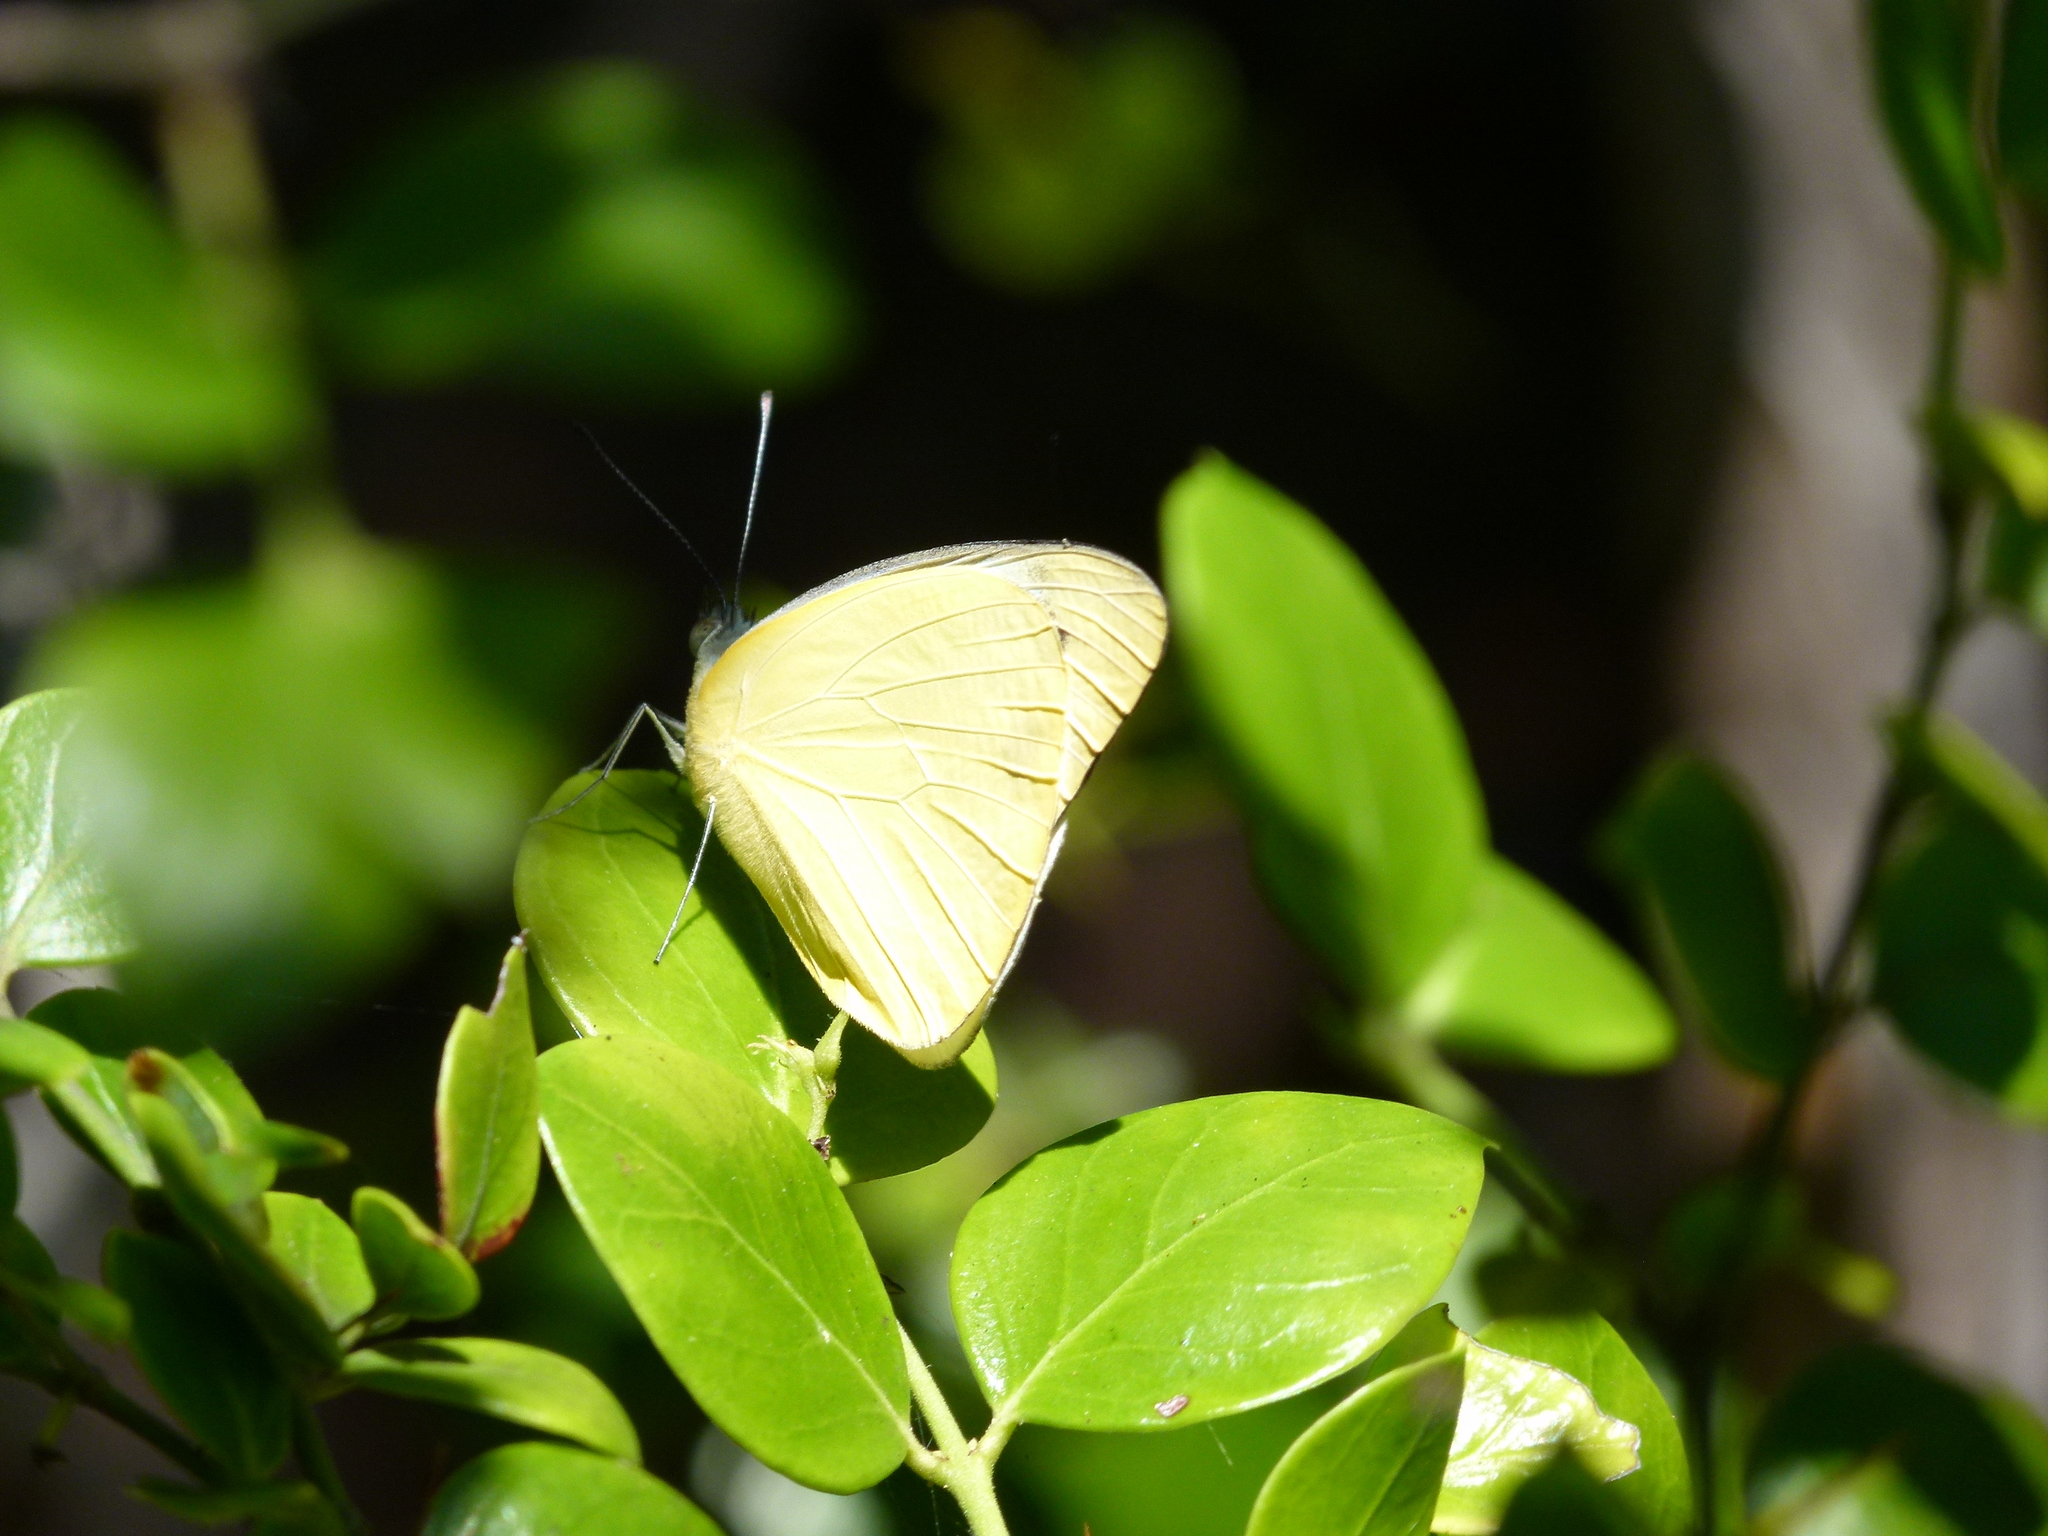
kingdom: Animalia
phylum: Arthropoda
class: Insecta
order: Lepidoptera
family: Pieridae
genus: Appias
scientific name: Appias paulina
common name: Ceylon lesser albatross
